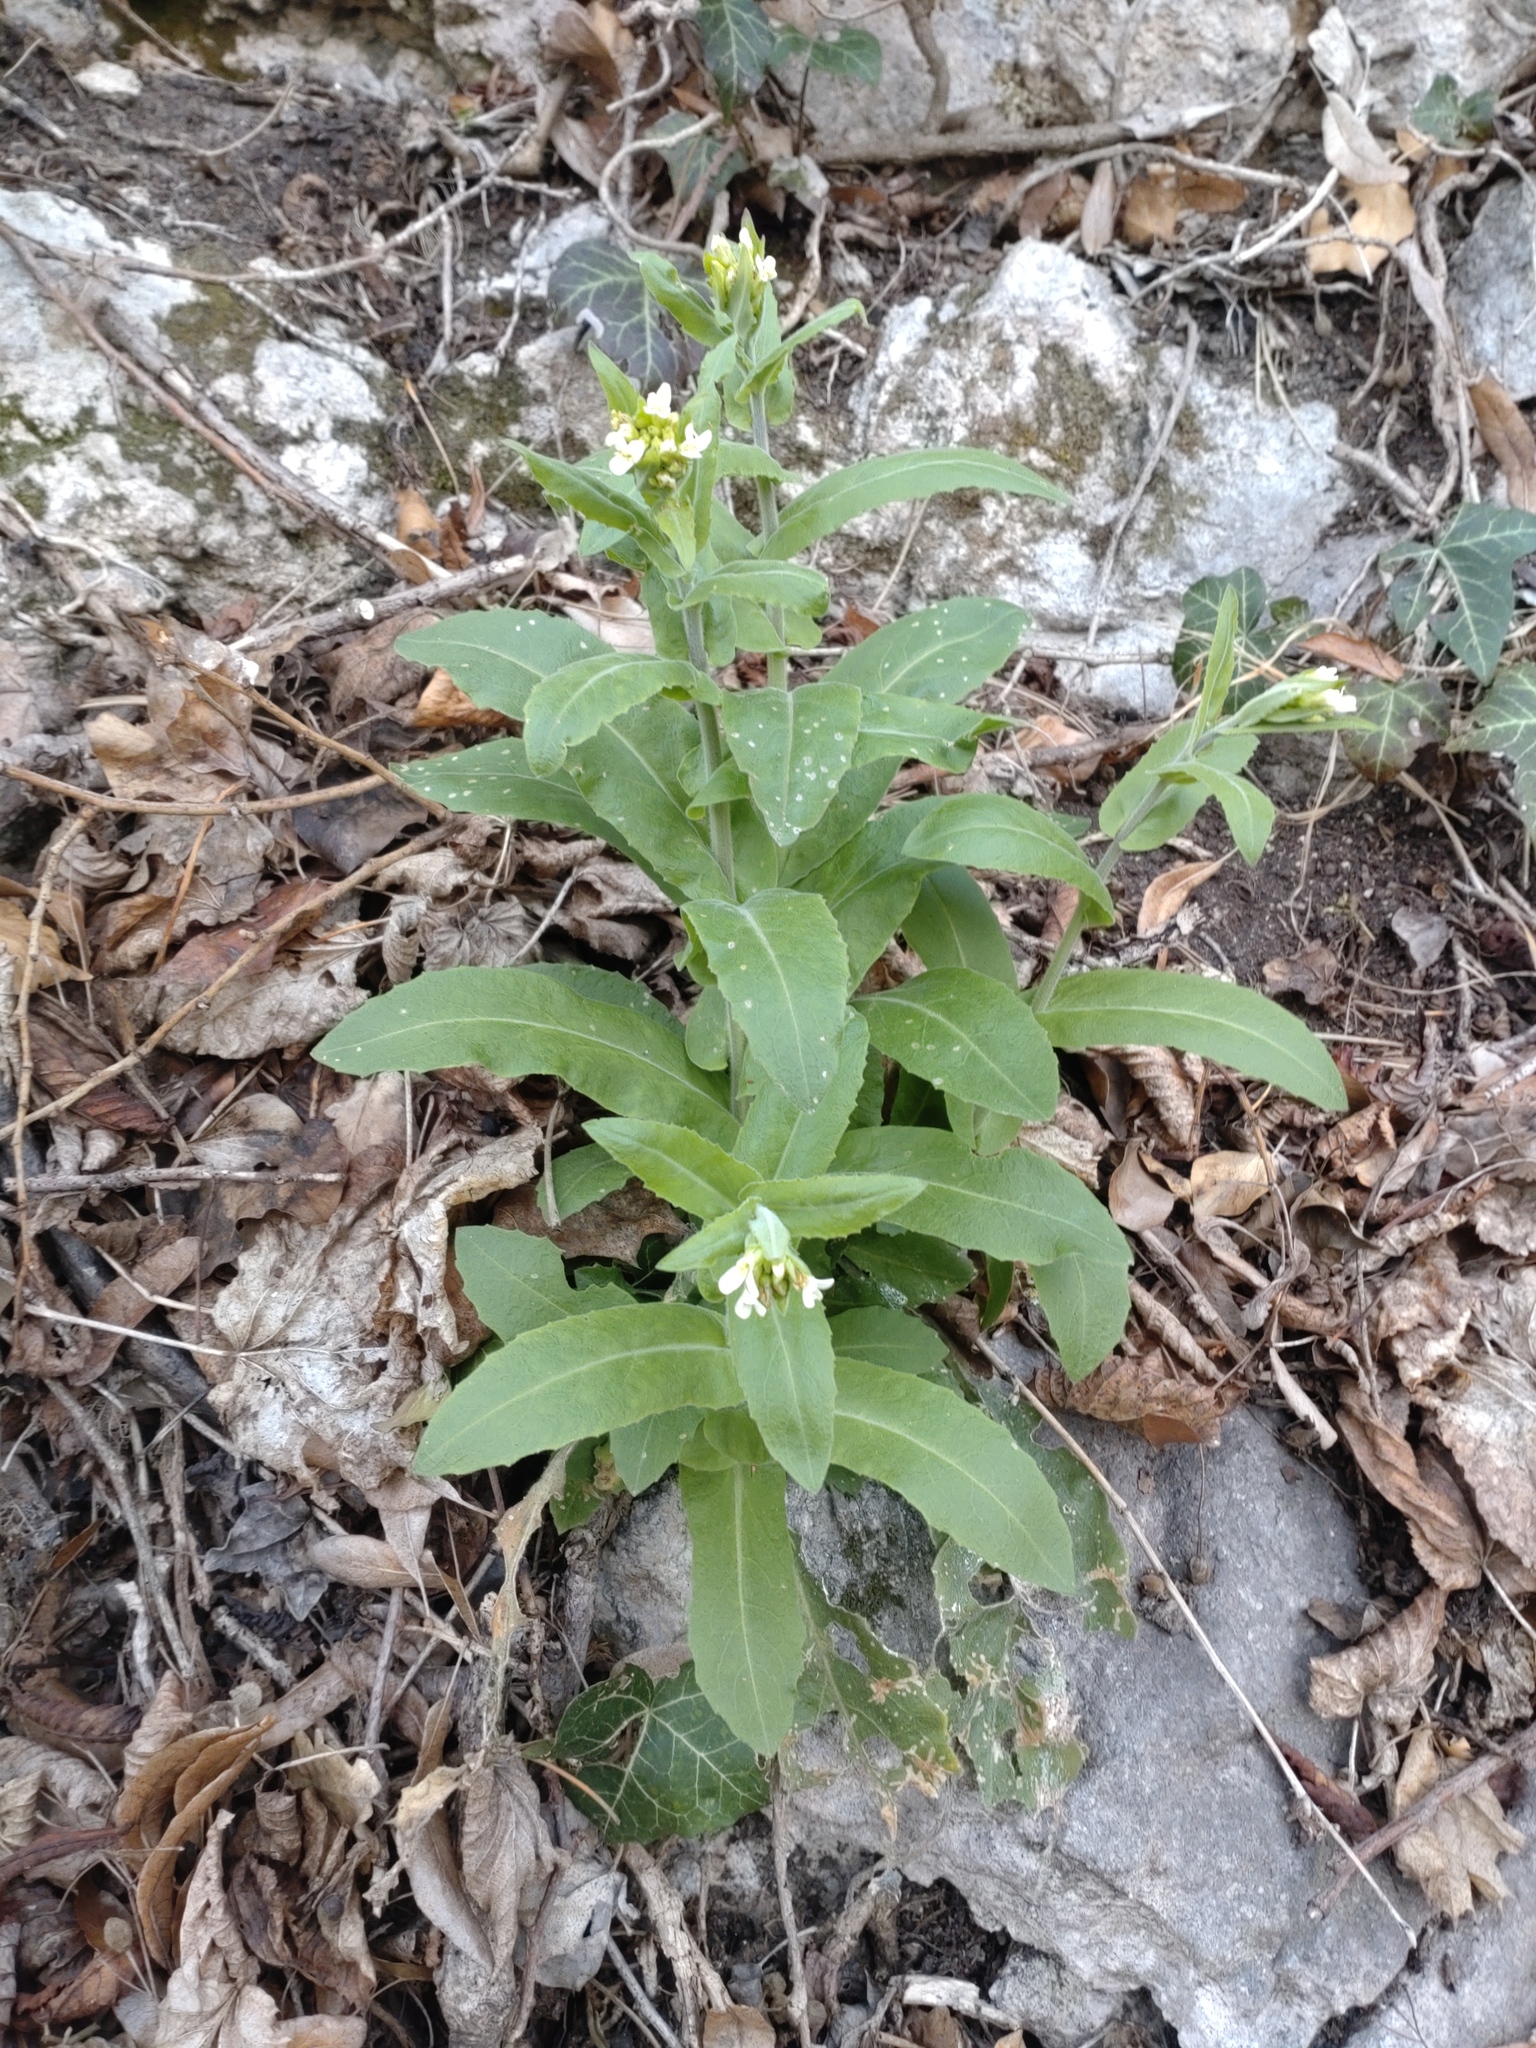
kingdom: Plantae
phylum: Tracheophyta
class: Magnoliopsida
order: Brassicales
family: Brassicaceae
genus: Pseudoturritis
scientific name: Pseudoturritis turrita
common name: Tower cress
